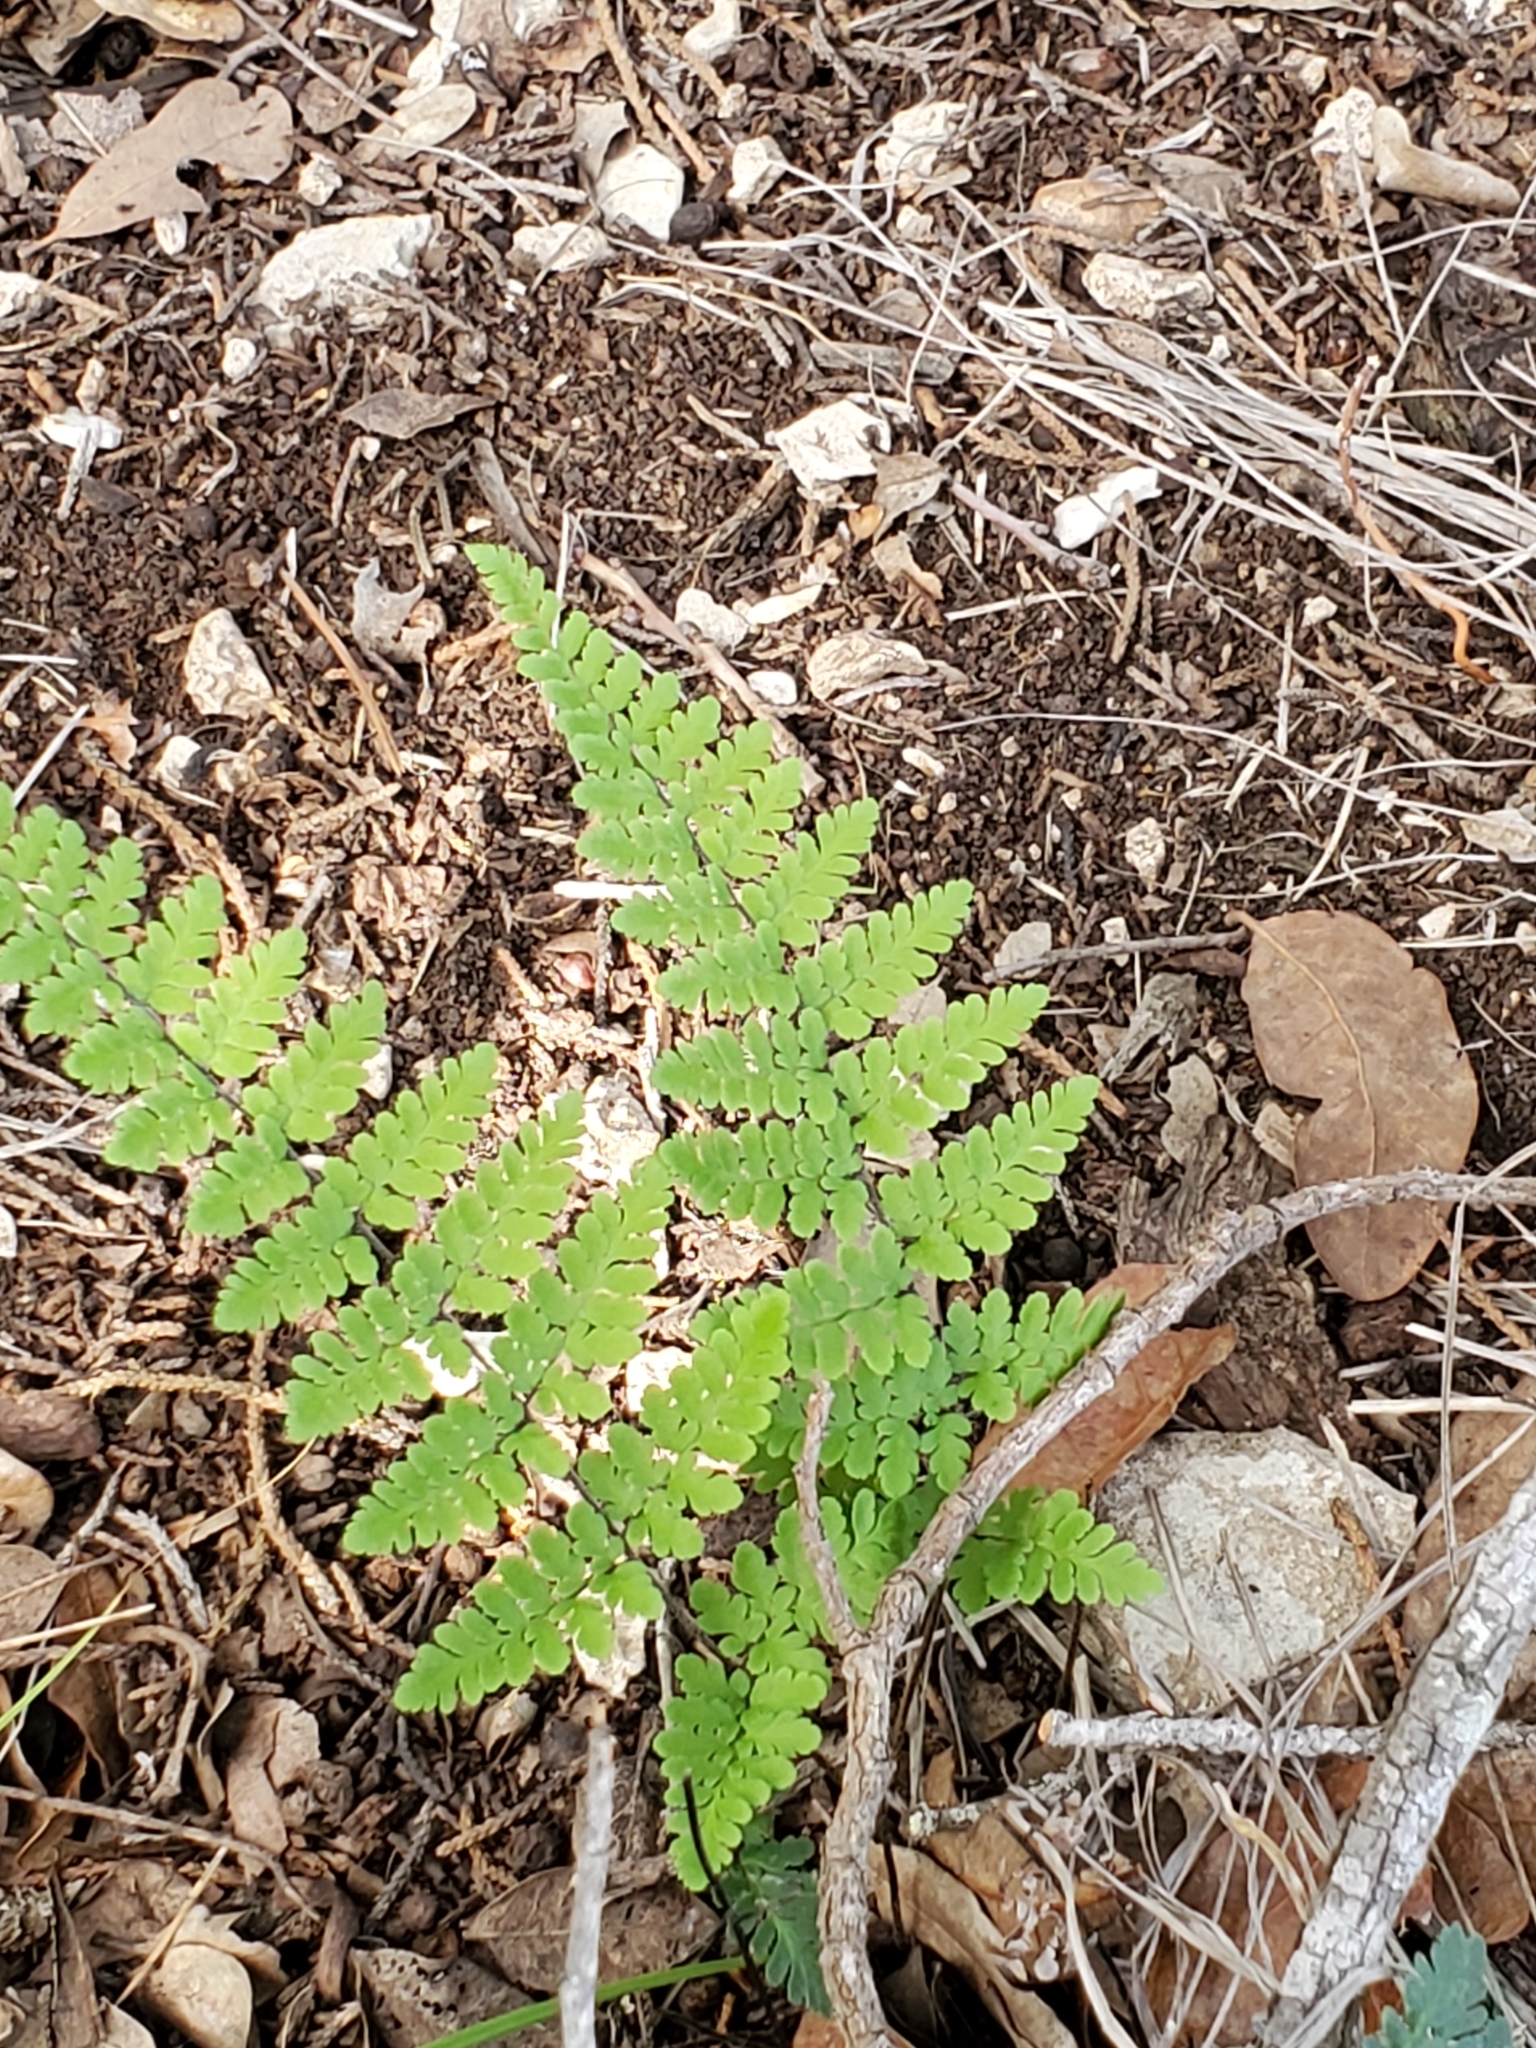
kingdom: Plantae
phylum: Tracheophyta
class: Polypodiopsida
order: Polypodiales
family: Pteridaceae
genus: Myriopteris
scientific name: Myriopteris alabamensis
